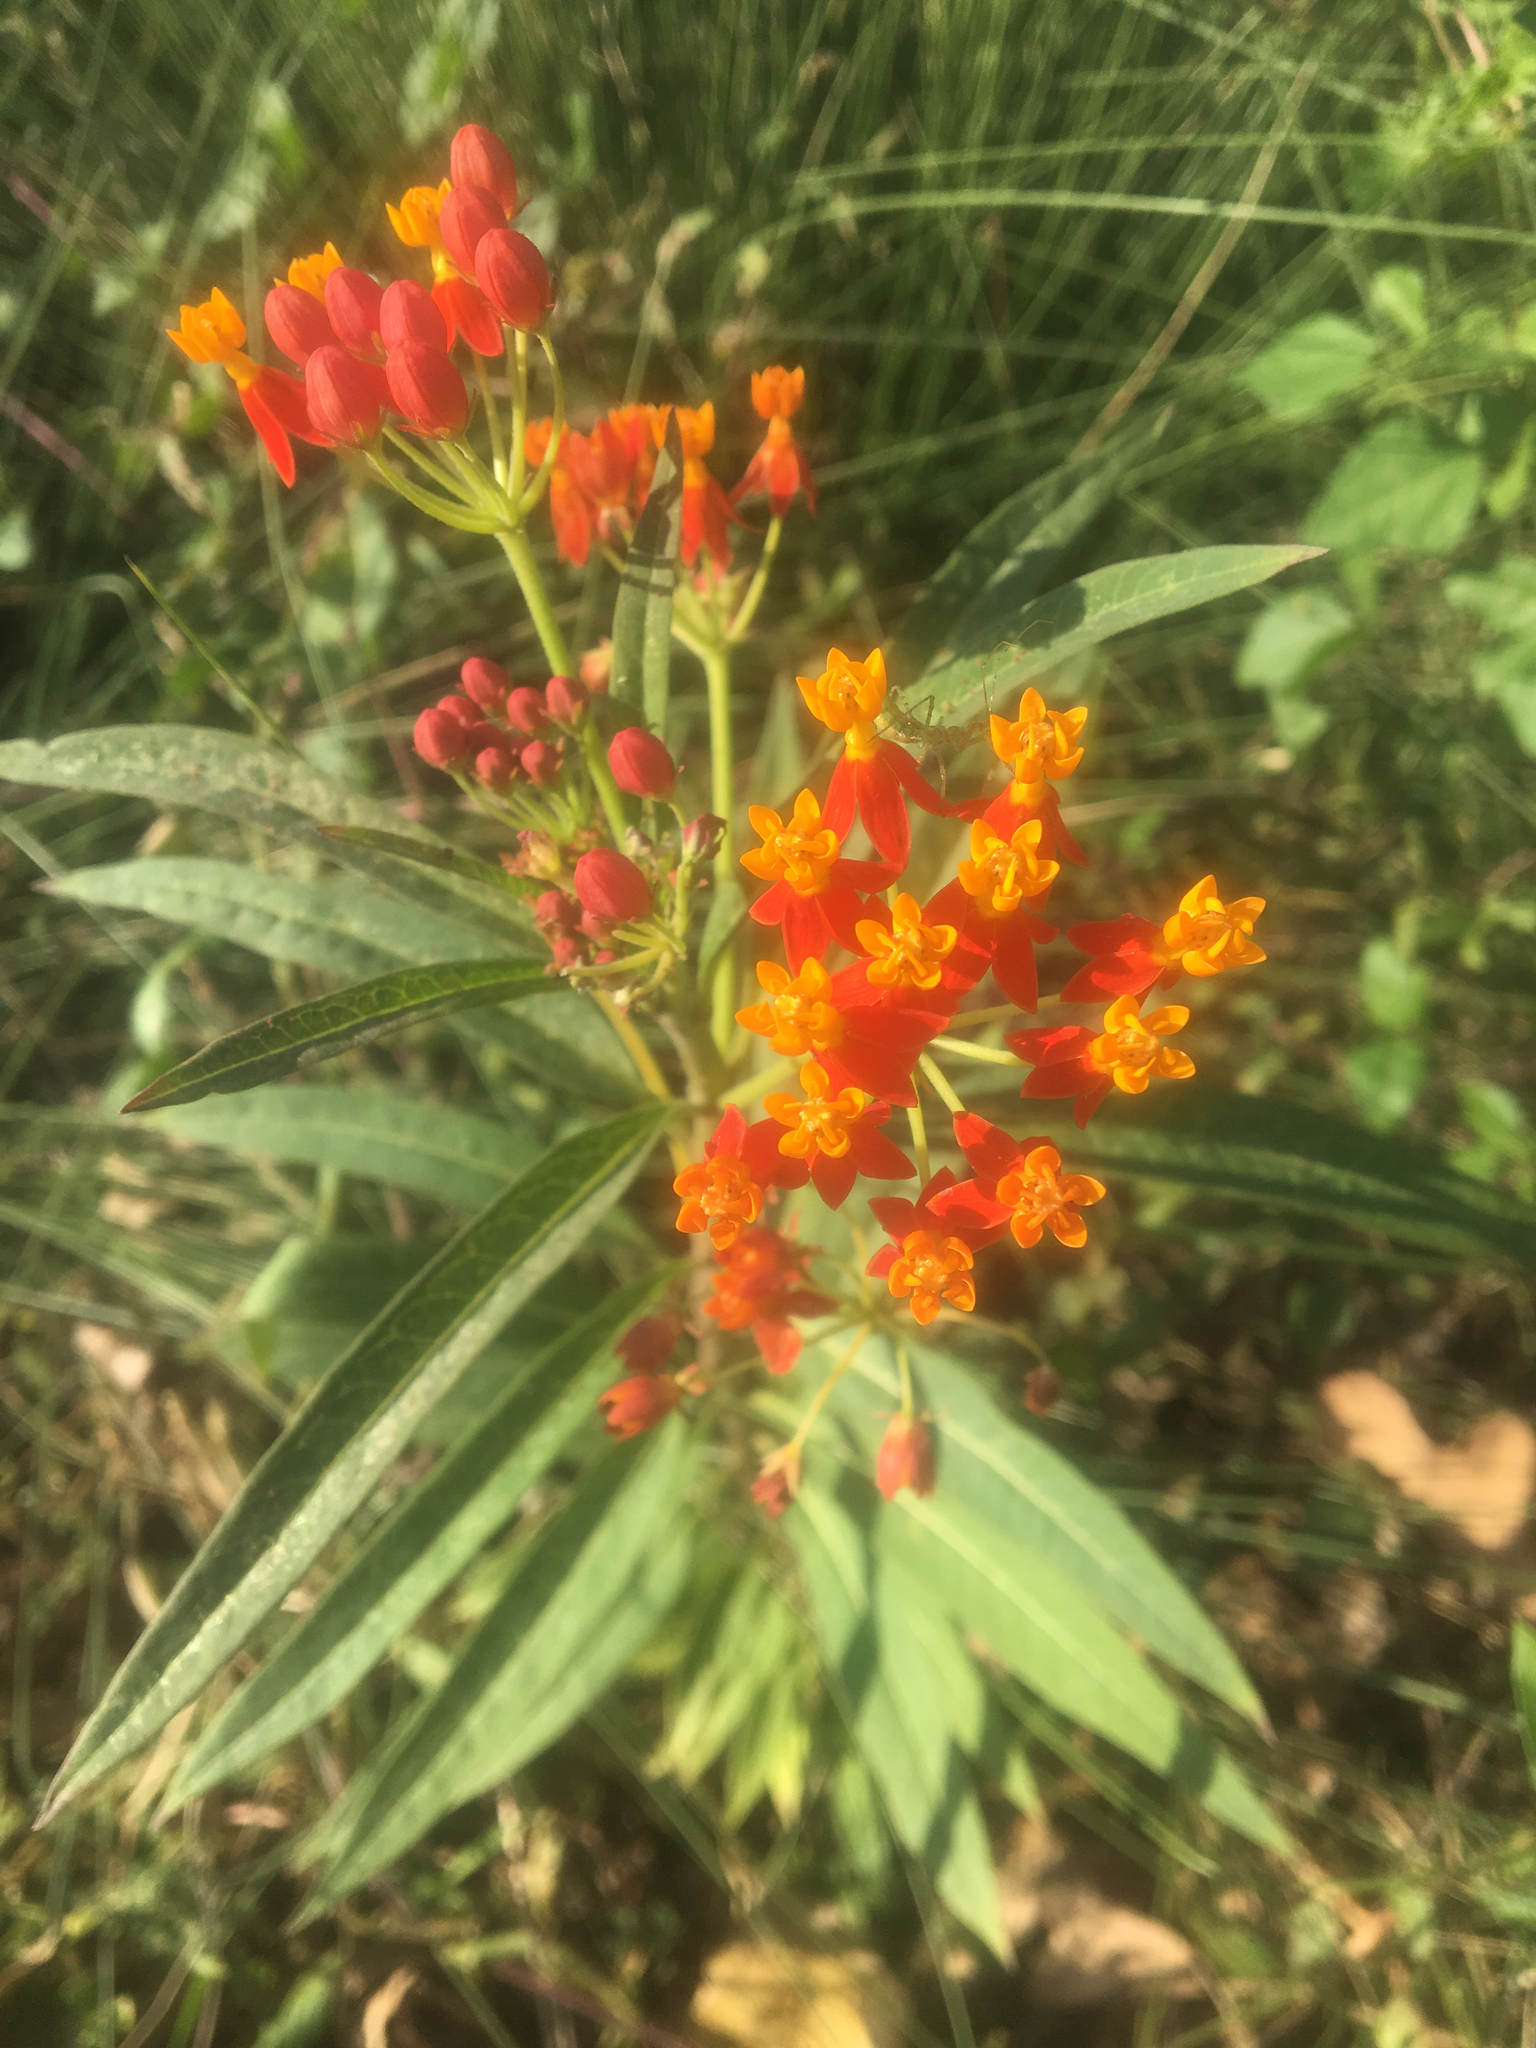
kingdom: Plantae
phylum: Tracheophyta
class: Magnoliopsida
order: Gentianales
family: Apocynaceae
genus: Asclepias
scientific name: Asclepias curassavica
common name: Bloodflower
